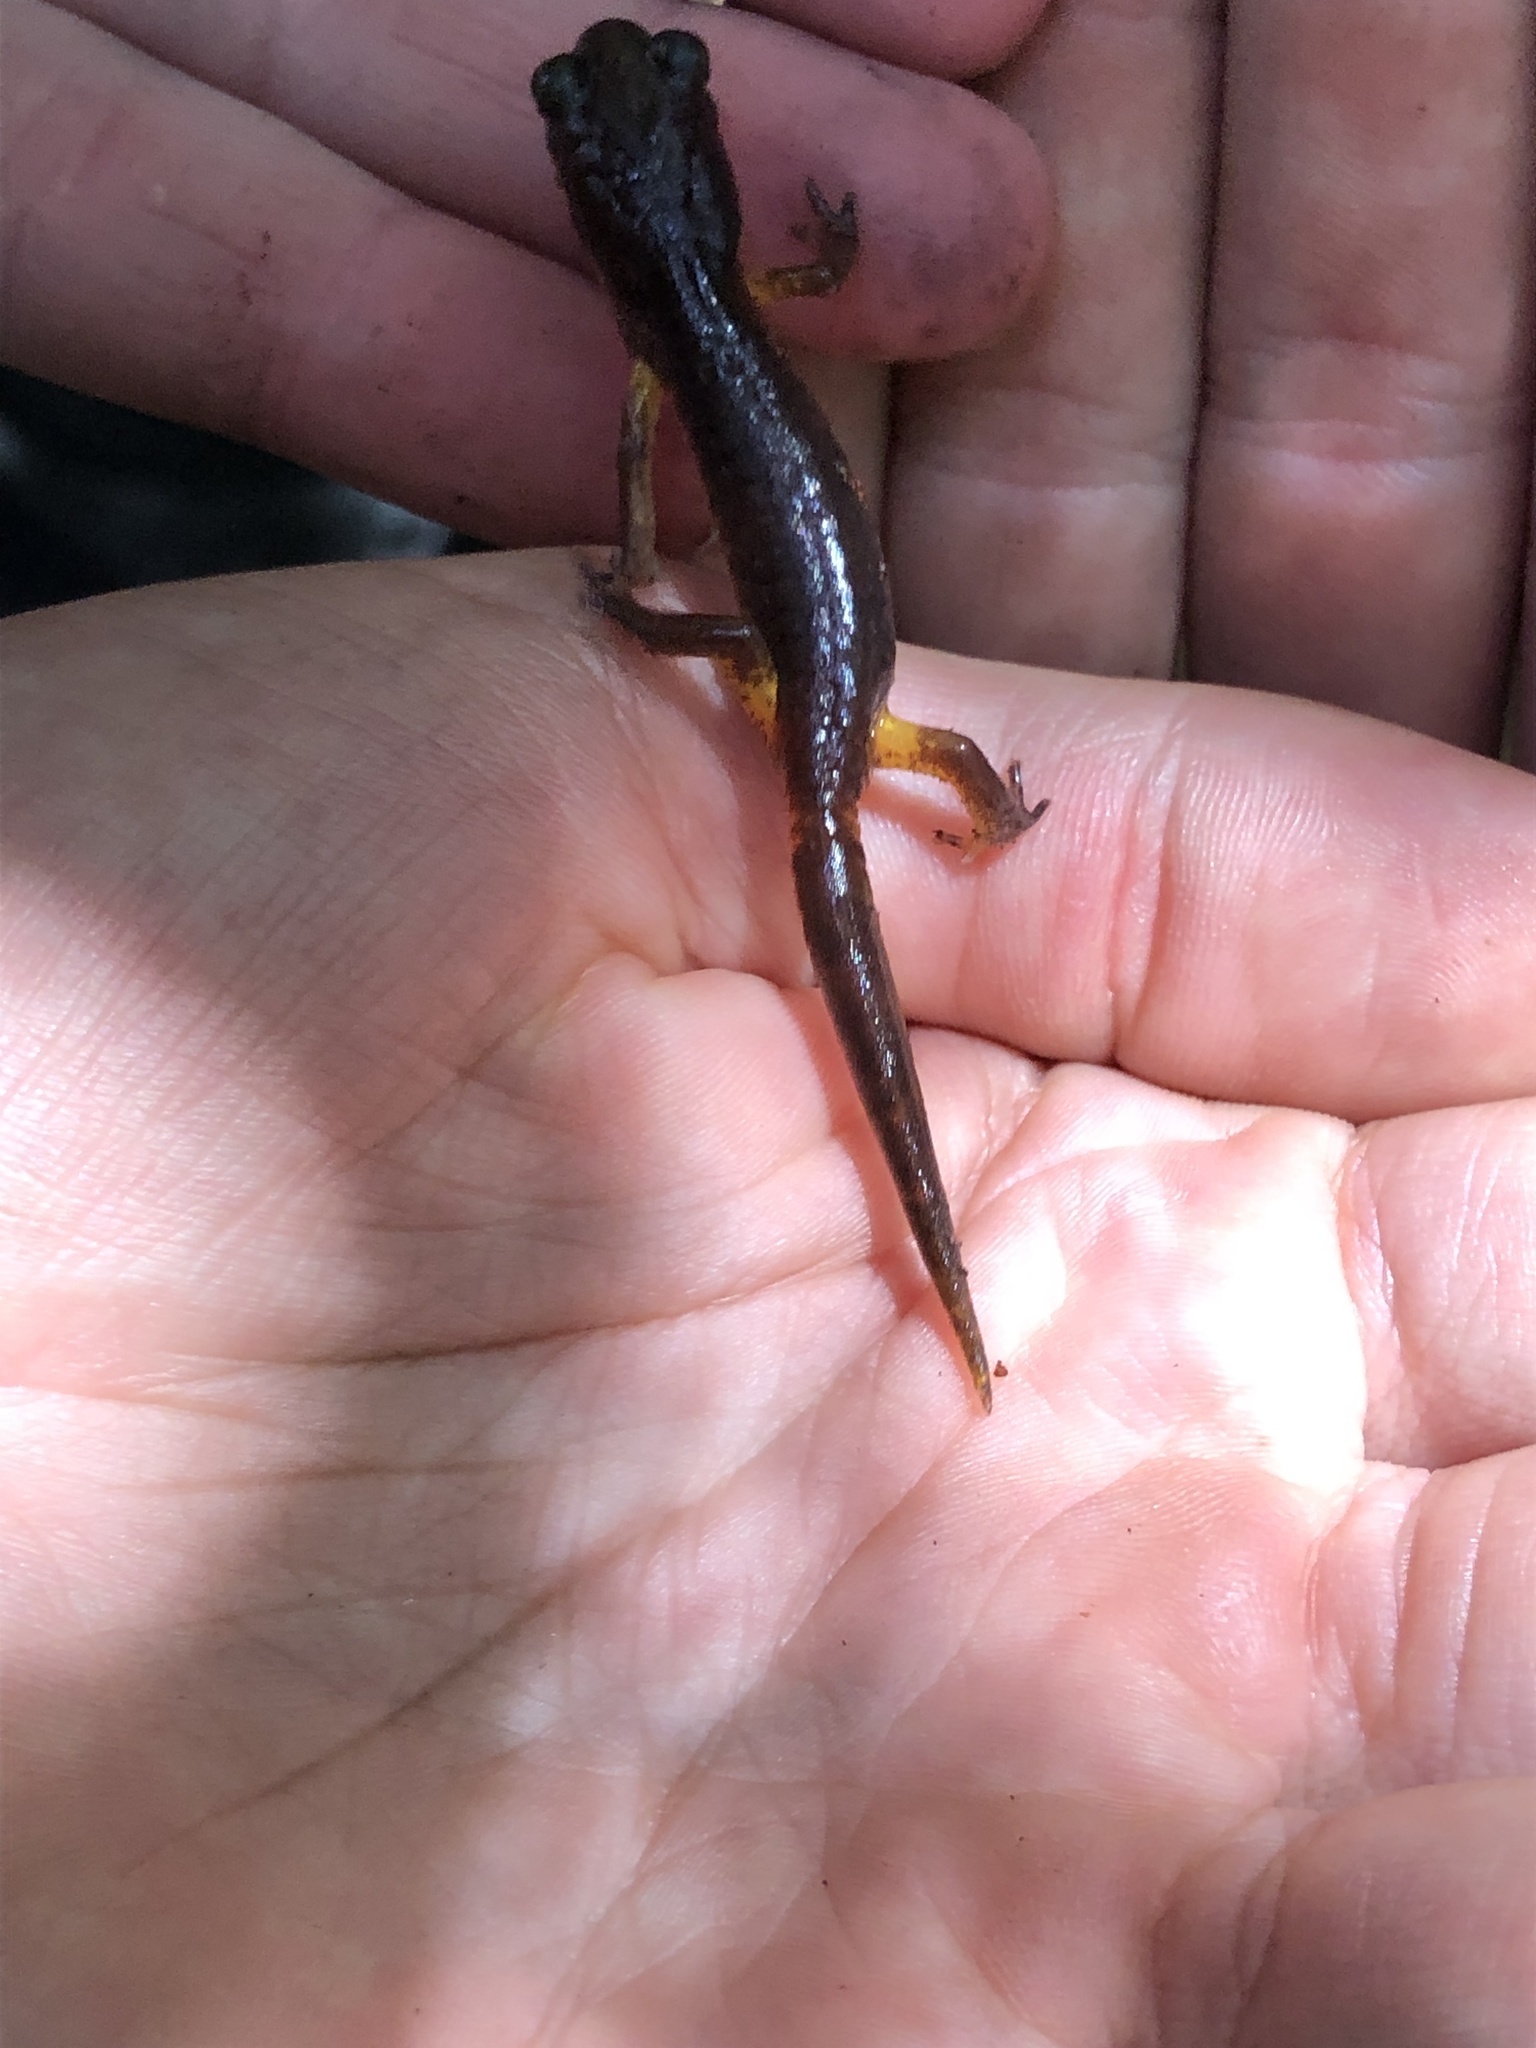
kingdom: Animalia
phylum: Chordata
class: Amphibia
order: Caudata
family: Plethodontidae
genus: Ensatina
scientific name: Ensatina eschscholtzii
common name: Ensatina
